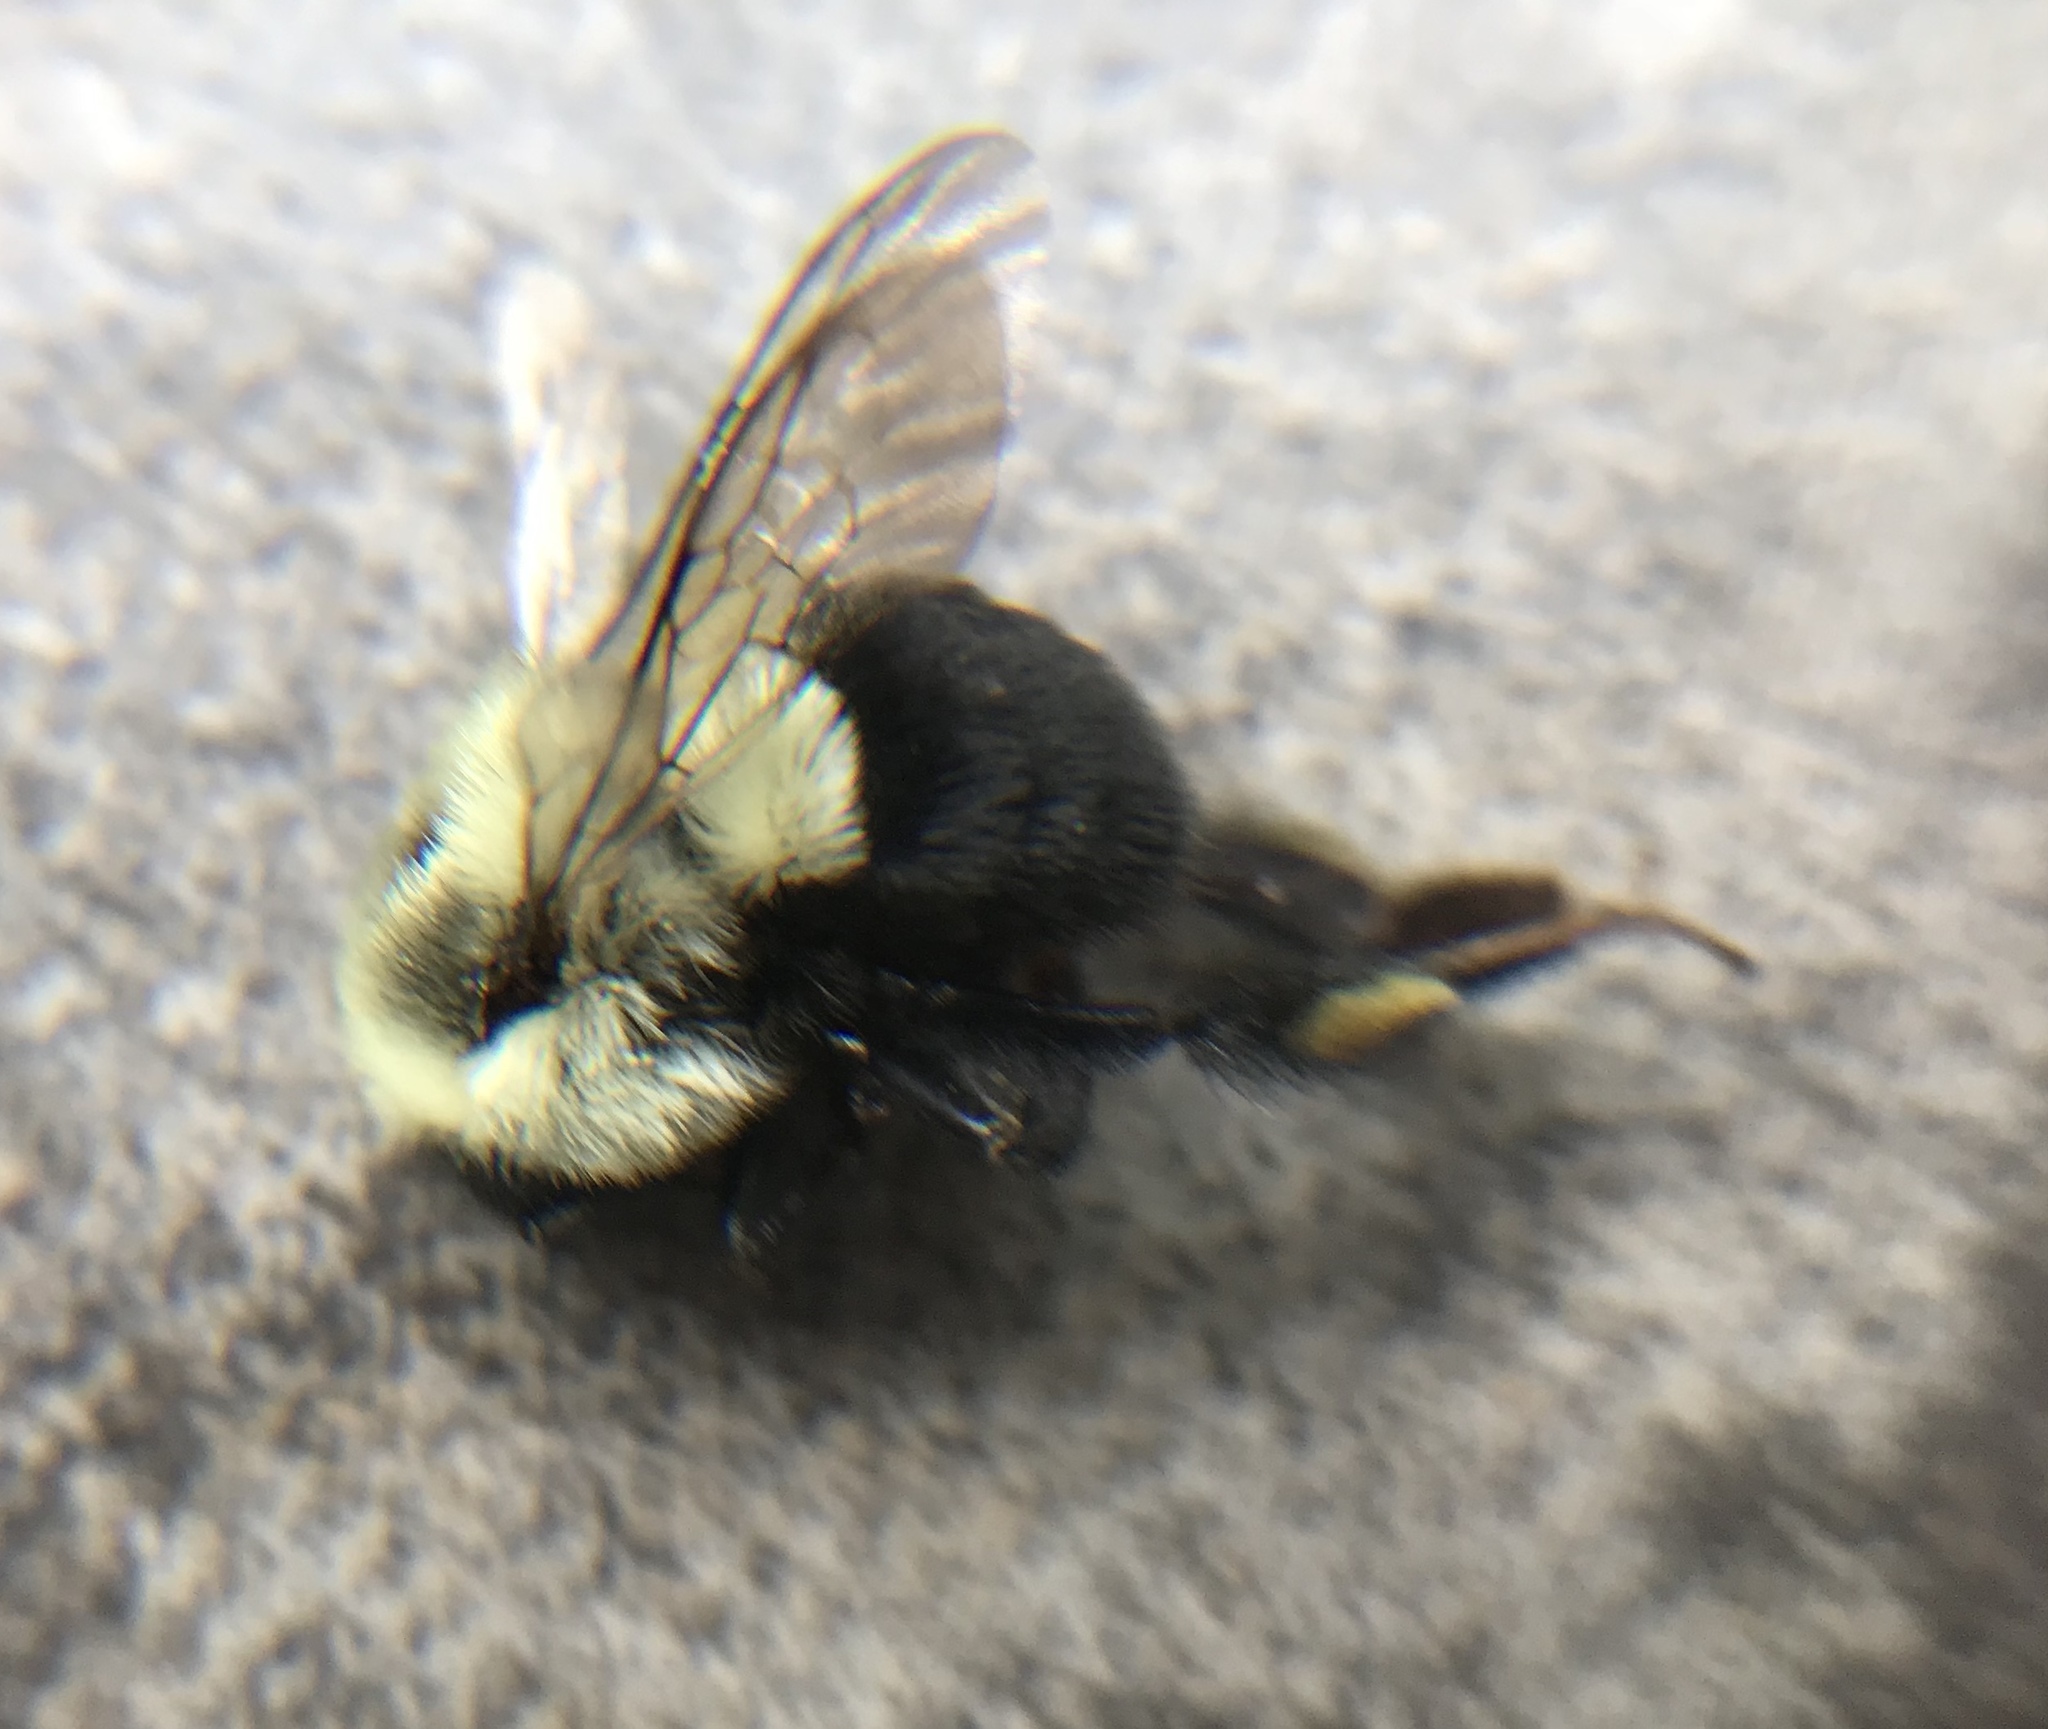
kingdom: Animalia
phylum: Arthropoda
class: Insecta
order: Hymenoptera
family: Apidae
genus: Bombus
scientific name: Bombus impatiens
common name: Common eastern bumble bee
